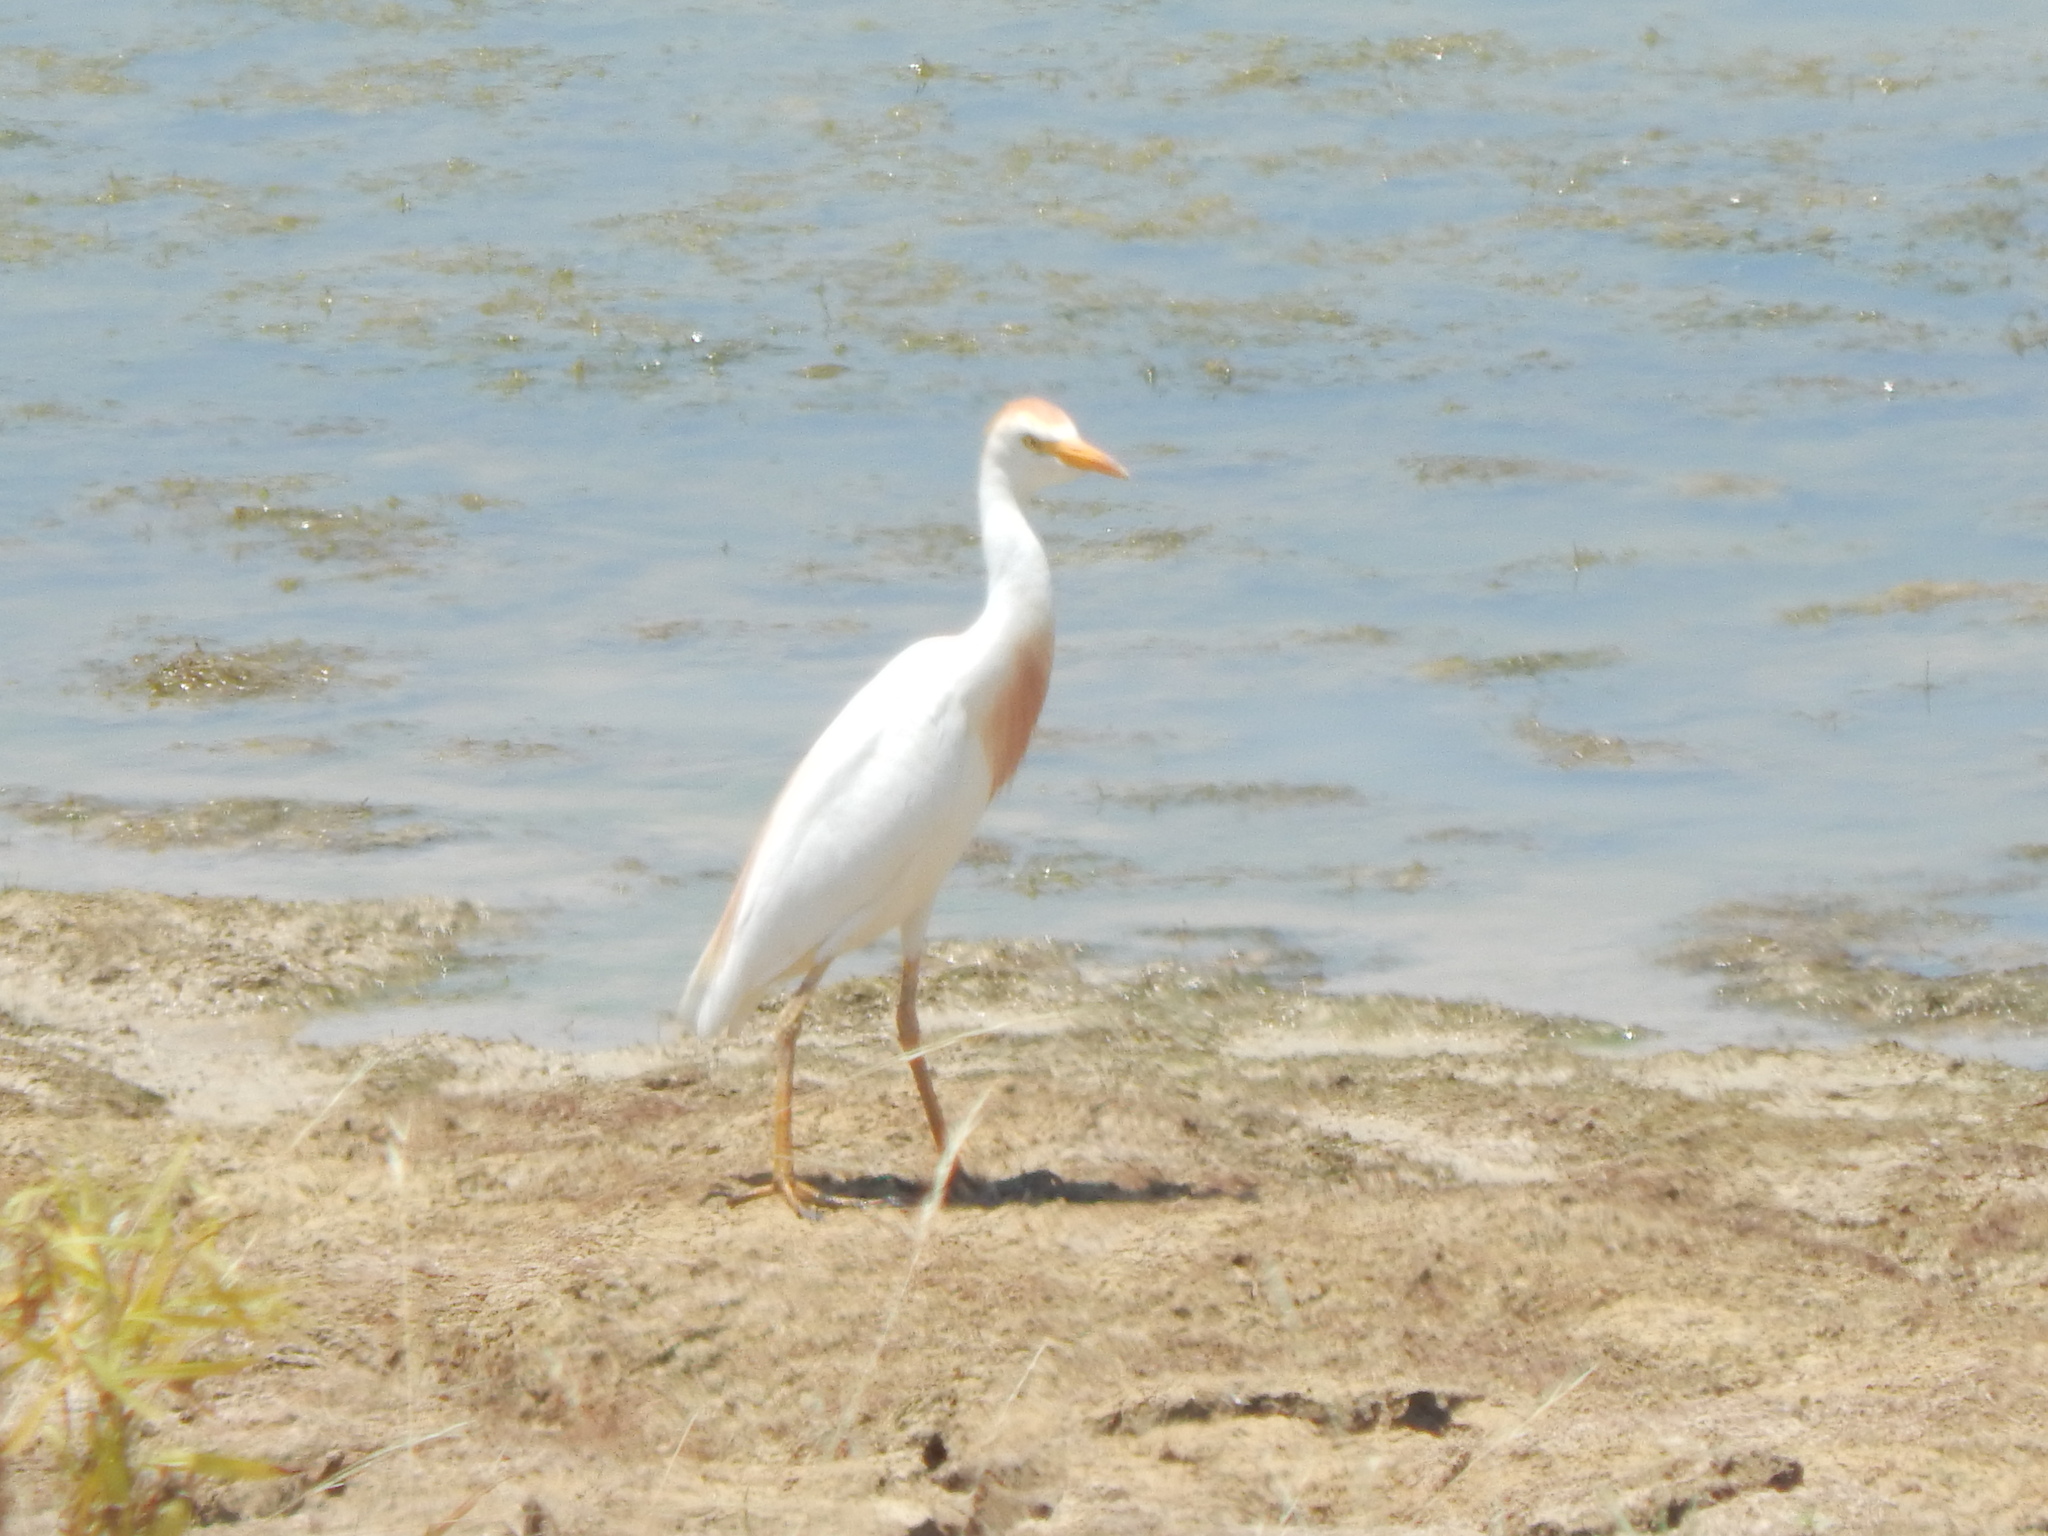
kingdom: Animalia
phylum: Chordata
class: Aves
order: Pelecaniformes
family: Ardeidae
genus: Bubulcus
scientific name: Bubulcus ibis
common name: Cattle egret
